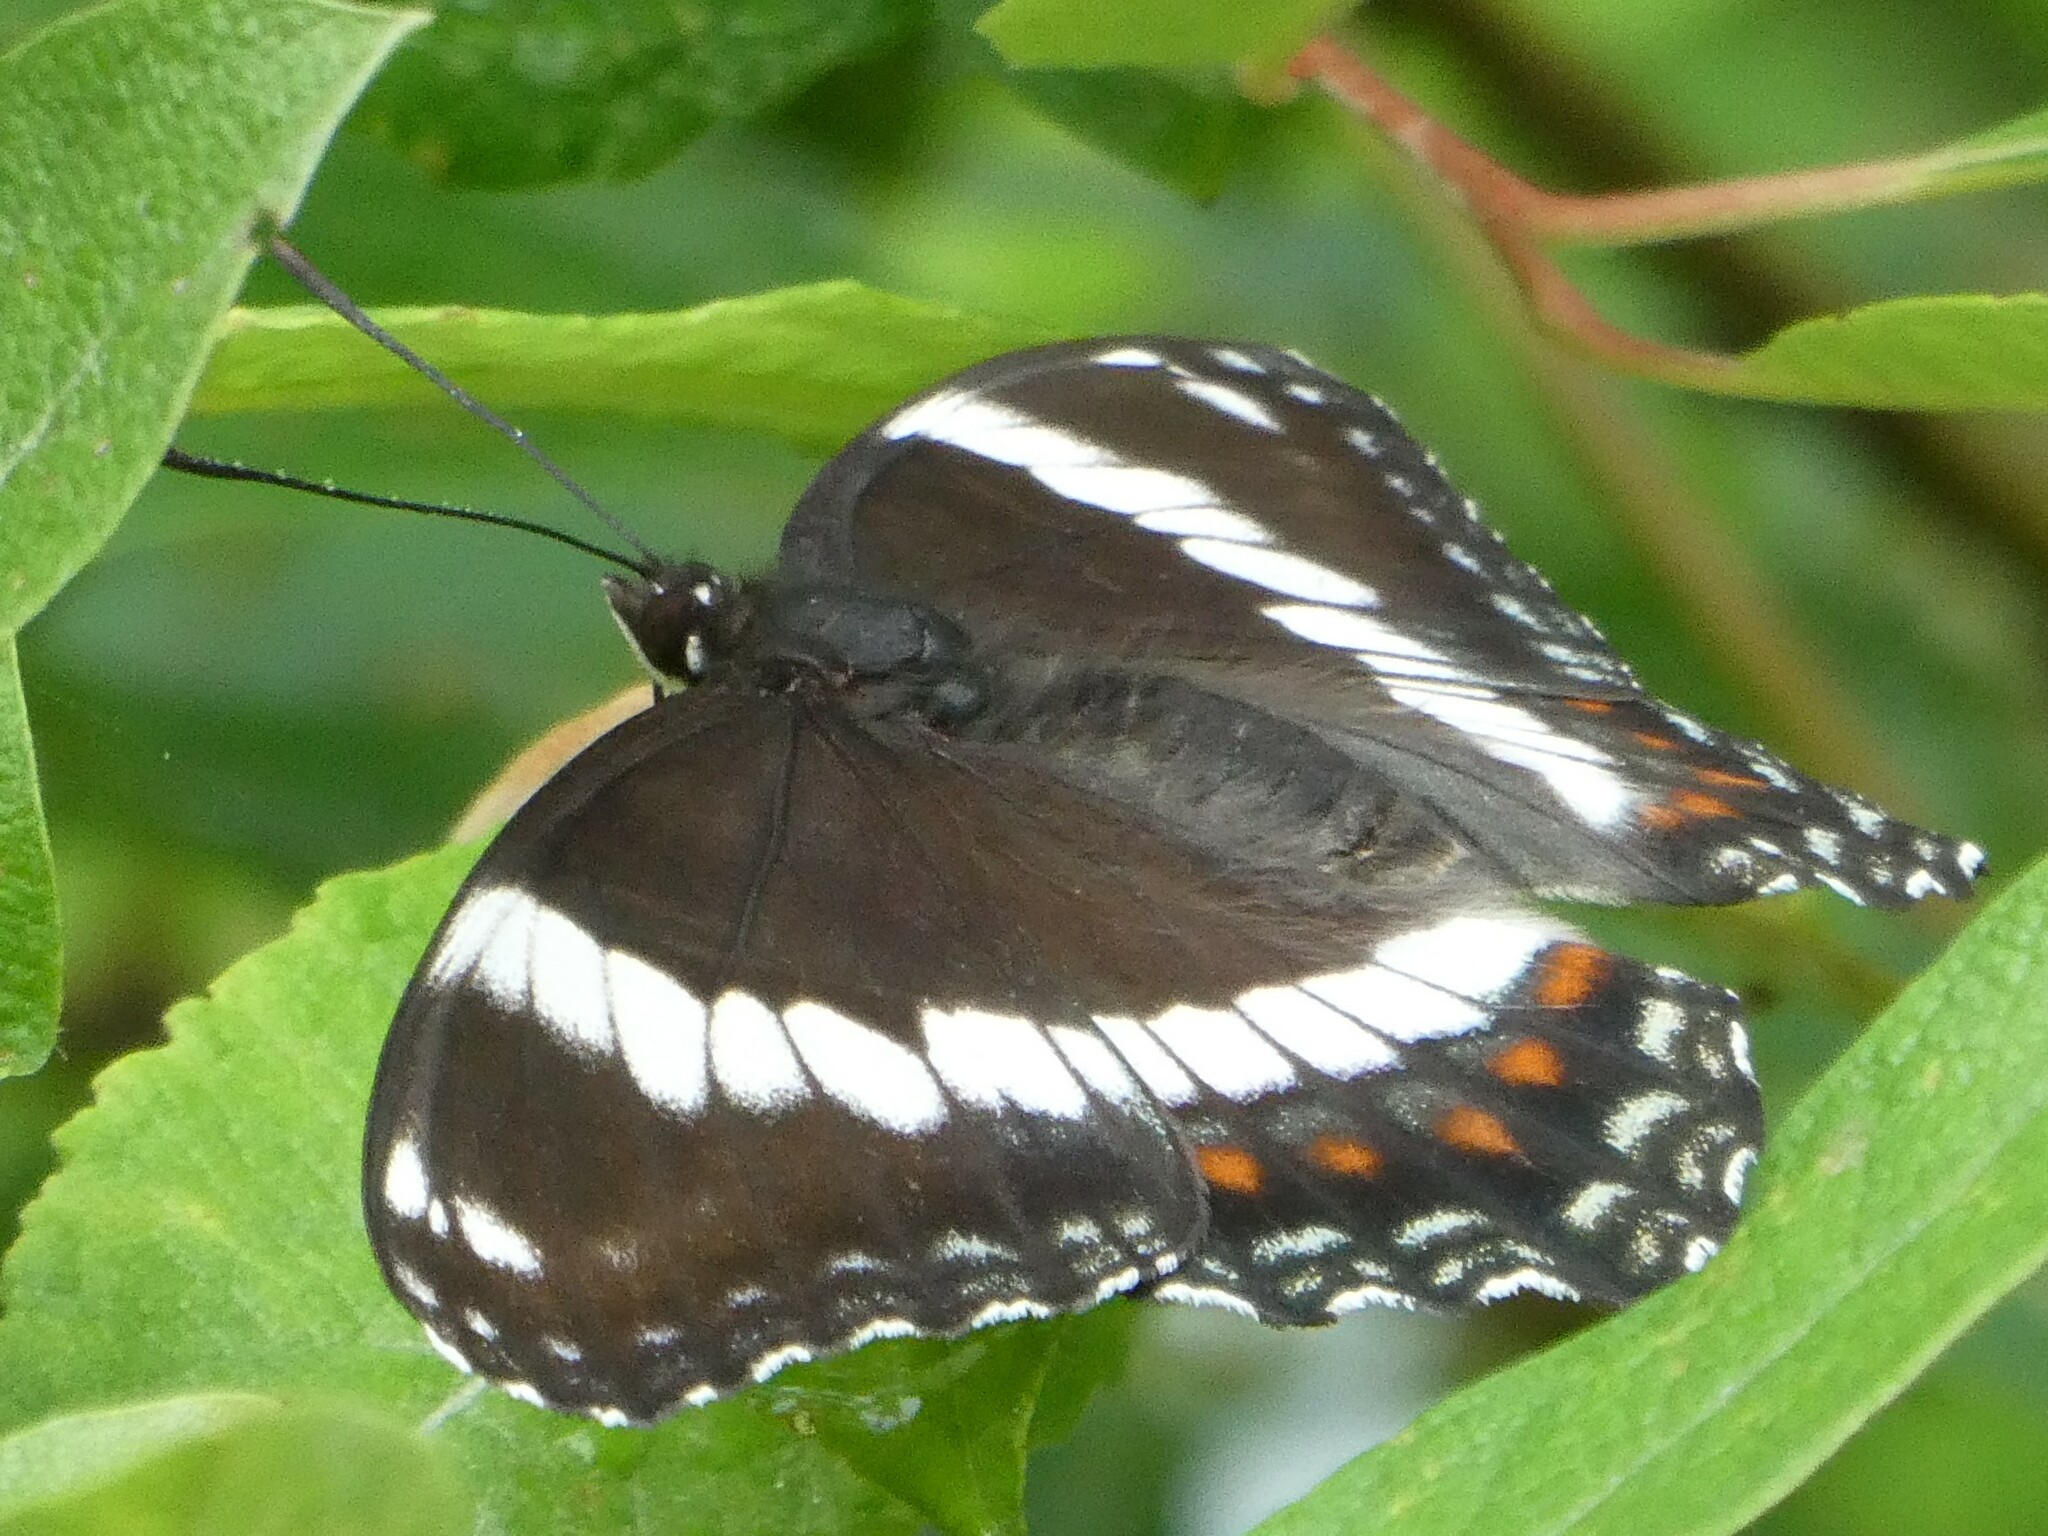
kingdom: Animalia
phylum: Arthropoda
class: Insecta
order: Lepidoptera
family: Nymphalidae
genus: Limenitis
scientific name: Limenitis arthemis
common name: Red-spotted admiral
